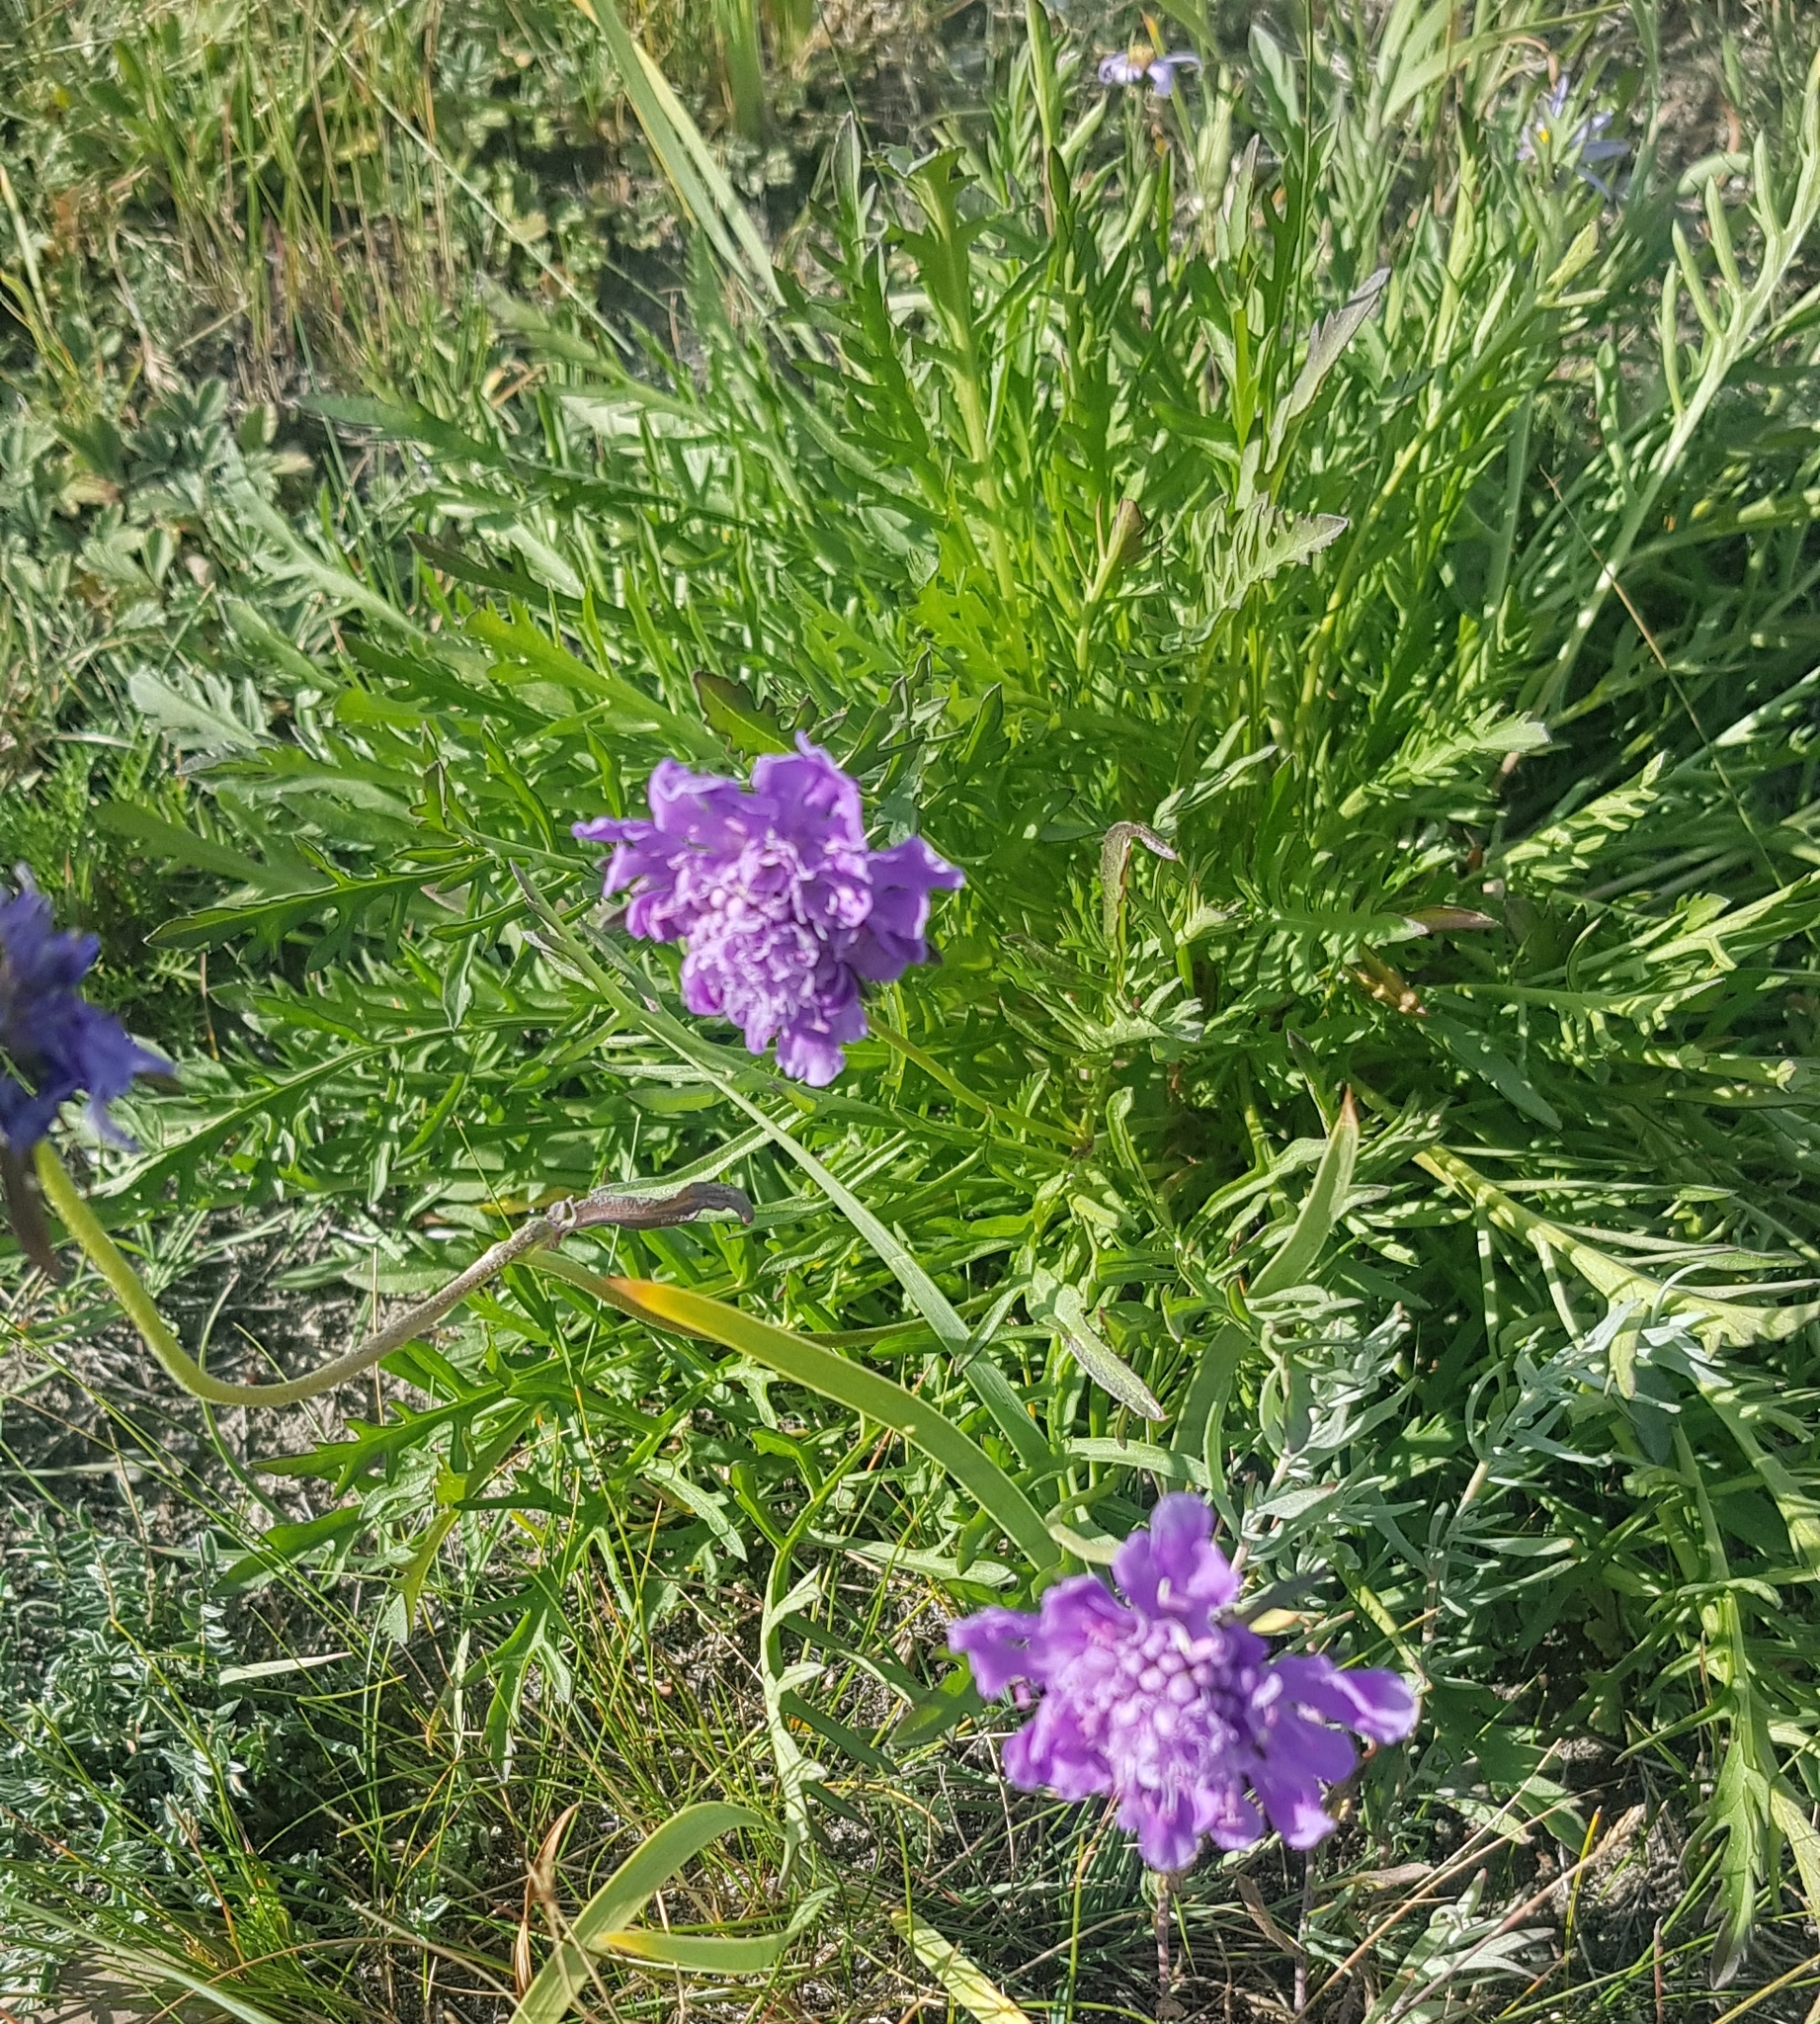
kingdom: Plantae
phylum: Tracheophyta
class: Magnoliopsida
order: Dipsacales
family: Caprifoliaceae
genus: Scabiosa
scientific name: Scabiosa comosa
